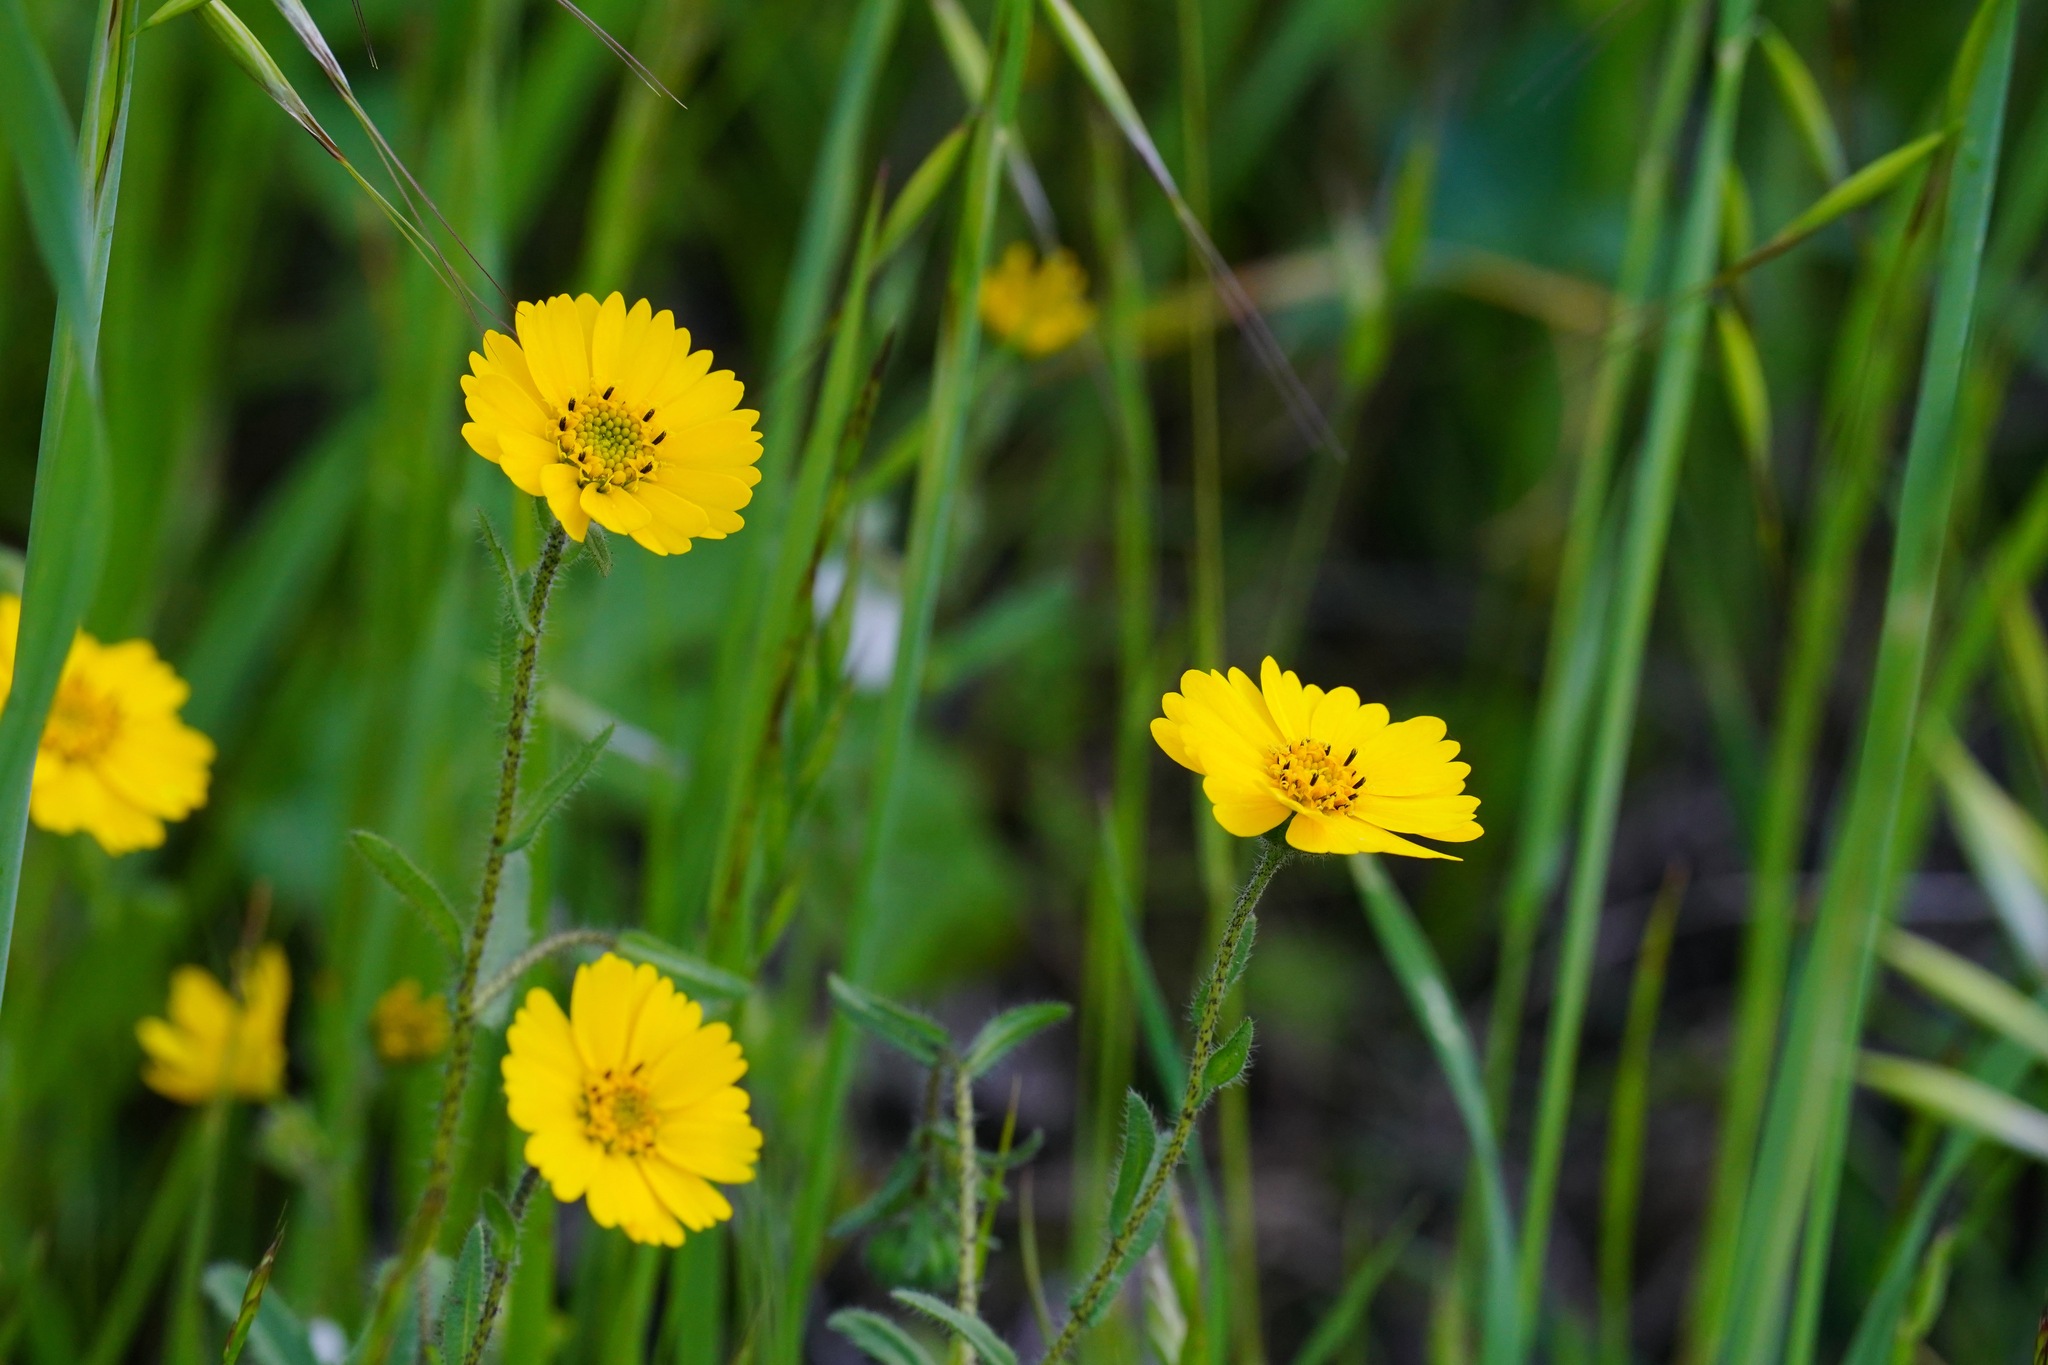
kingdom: Plantae
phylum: Tracheophyta
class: Magnoliopsida
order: Asterales
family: Asteraceae
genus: Layia
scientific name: Layia gaillardioides
